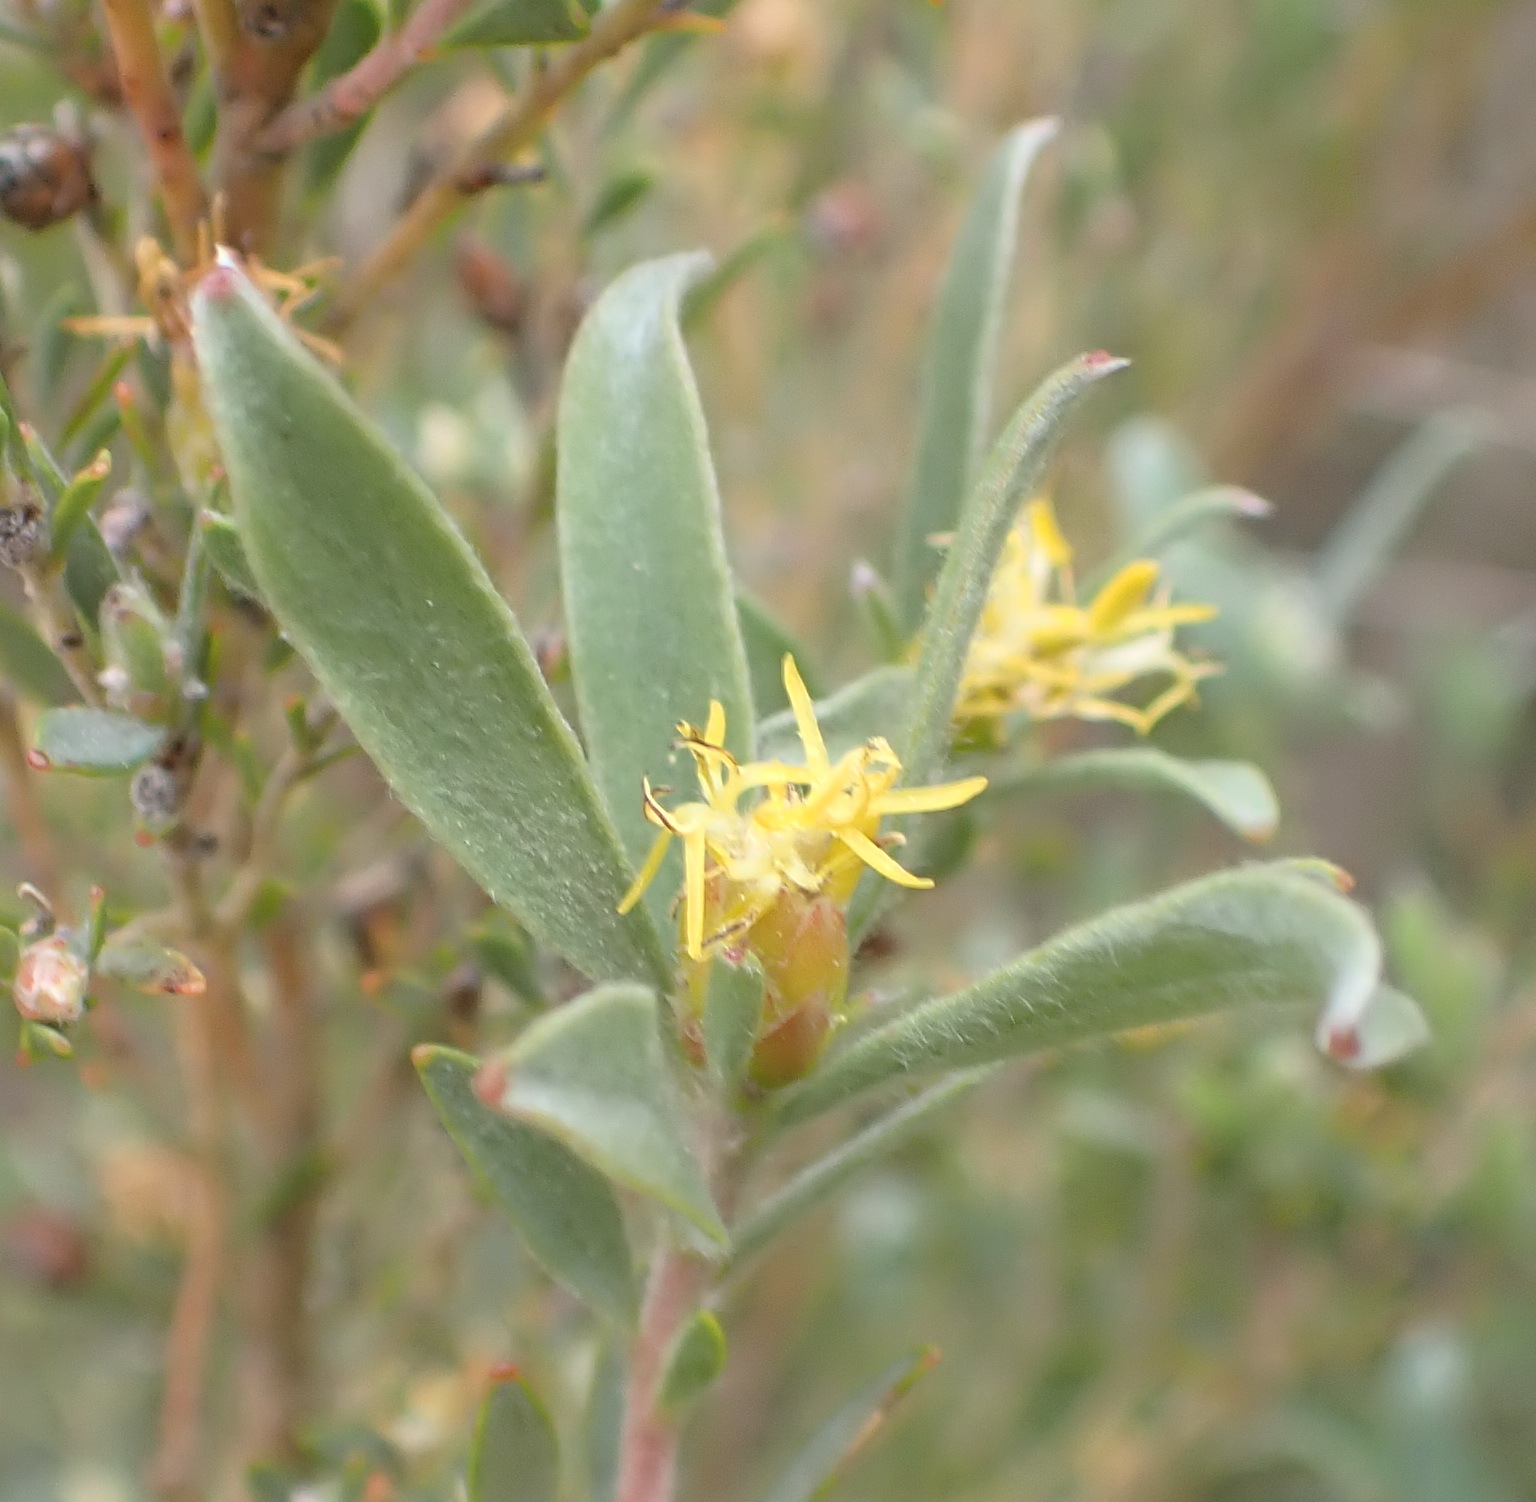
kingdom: Plantae
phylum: Tracheophyta
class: Magnoliopsida
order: Proteales
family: Proteaceae
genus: Leucadendron
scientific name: Leucadendron rubrum
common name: Spinning top
